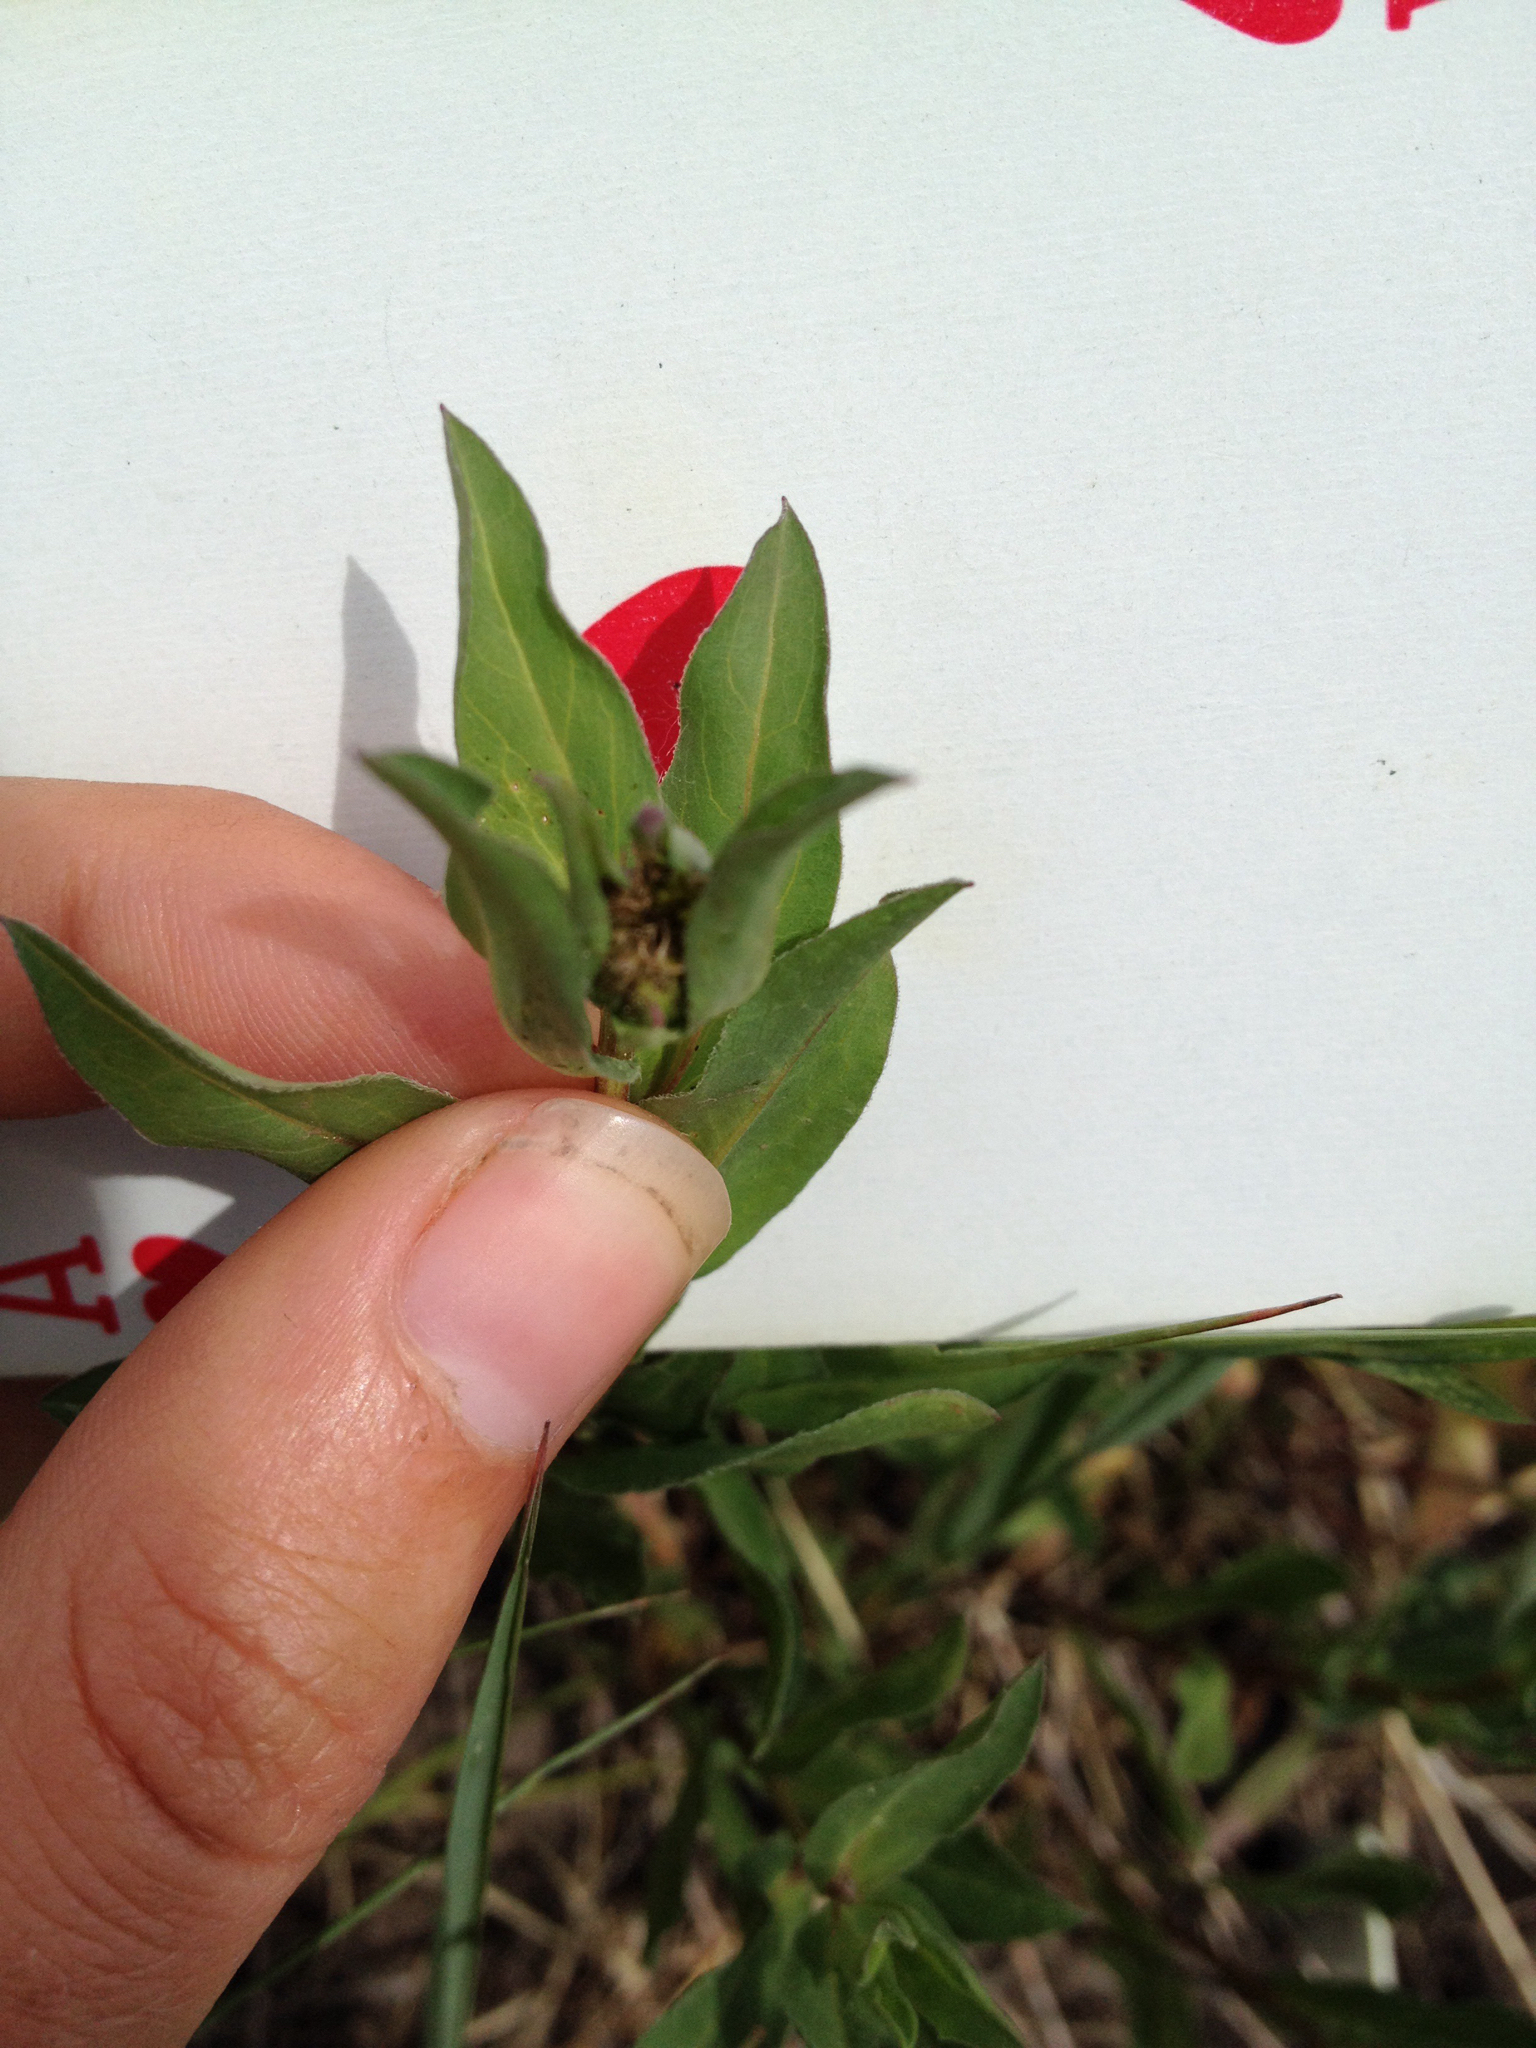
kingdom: Plantae
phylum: Tracheophyta
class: Magnoliopsida
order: Asterales
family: Asteraceae
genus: Erigeron
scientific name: Erigeron speciosus
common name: Aspen fleabane
